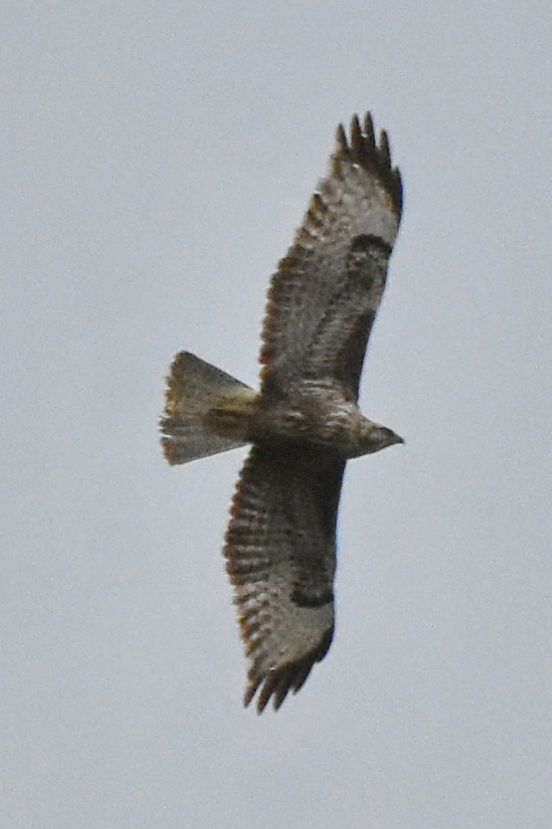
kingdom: Animalia
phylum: Chordata
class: Aves
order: Accipitriformes
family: Accipitridae
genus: Buteo
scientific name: Buteo buteo
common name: Common buzzard
